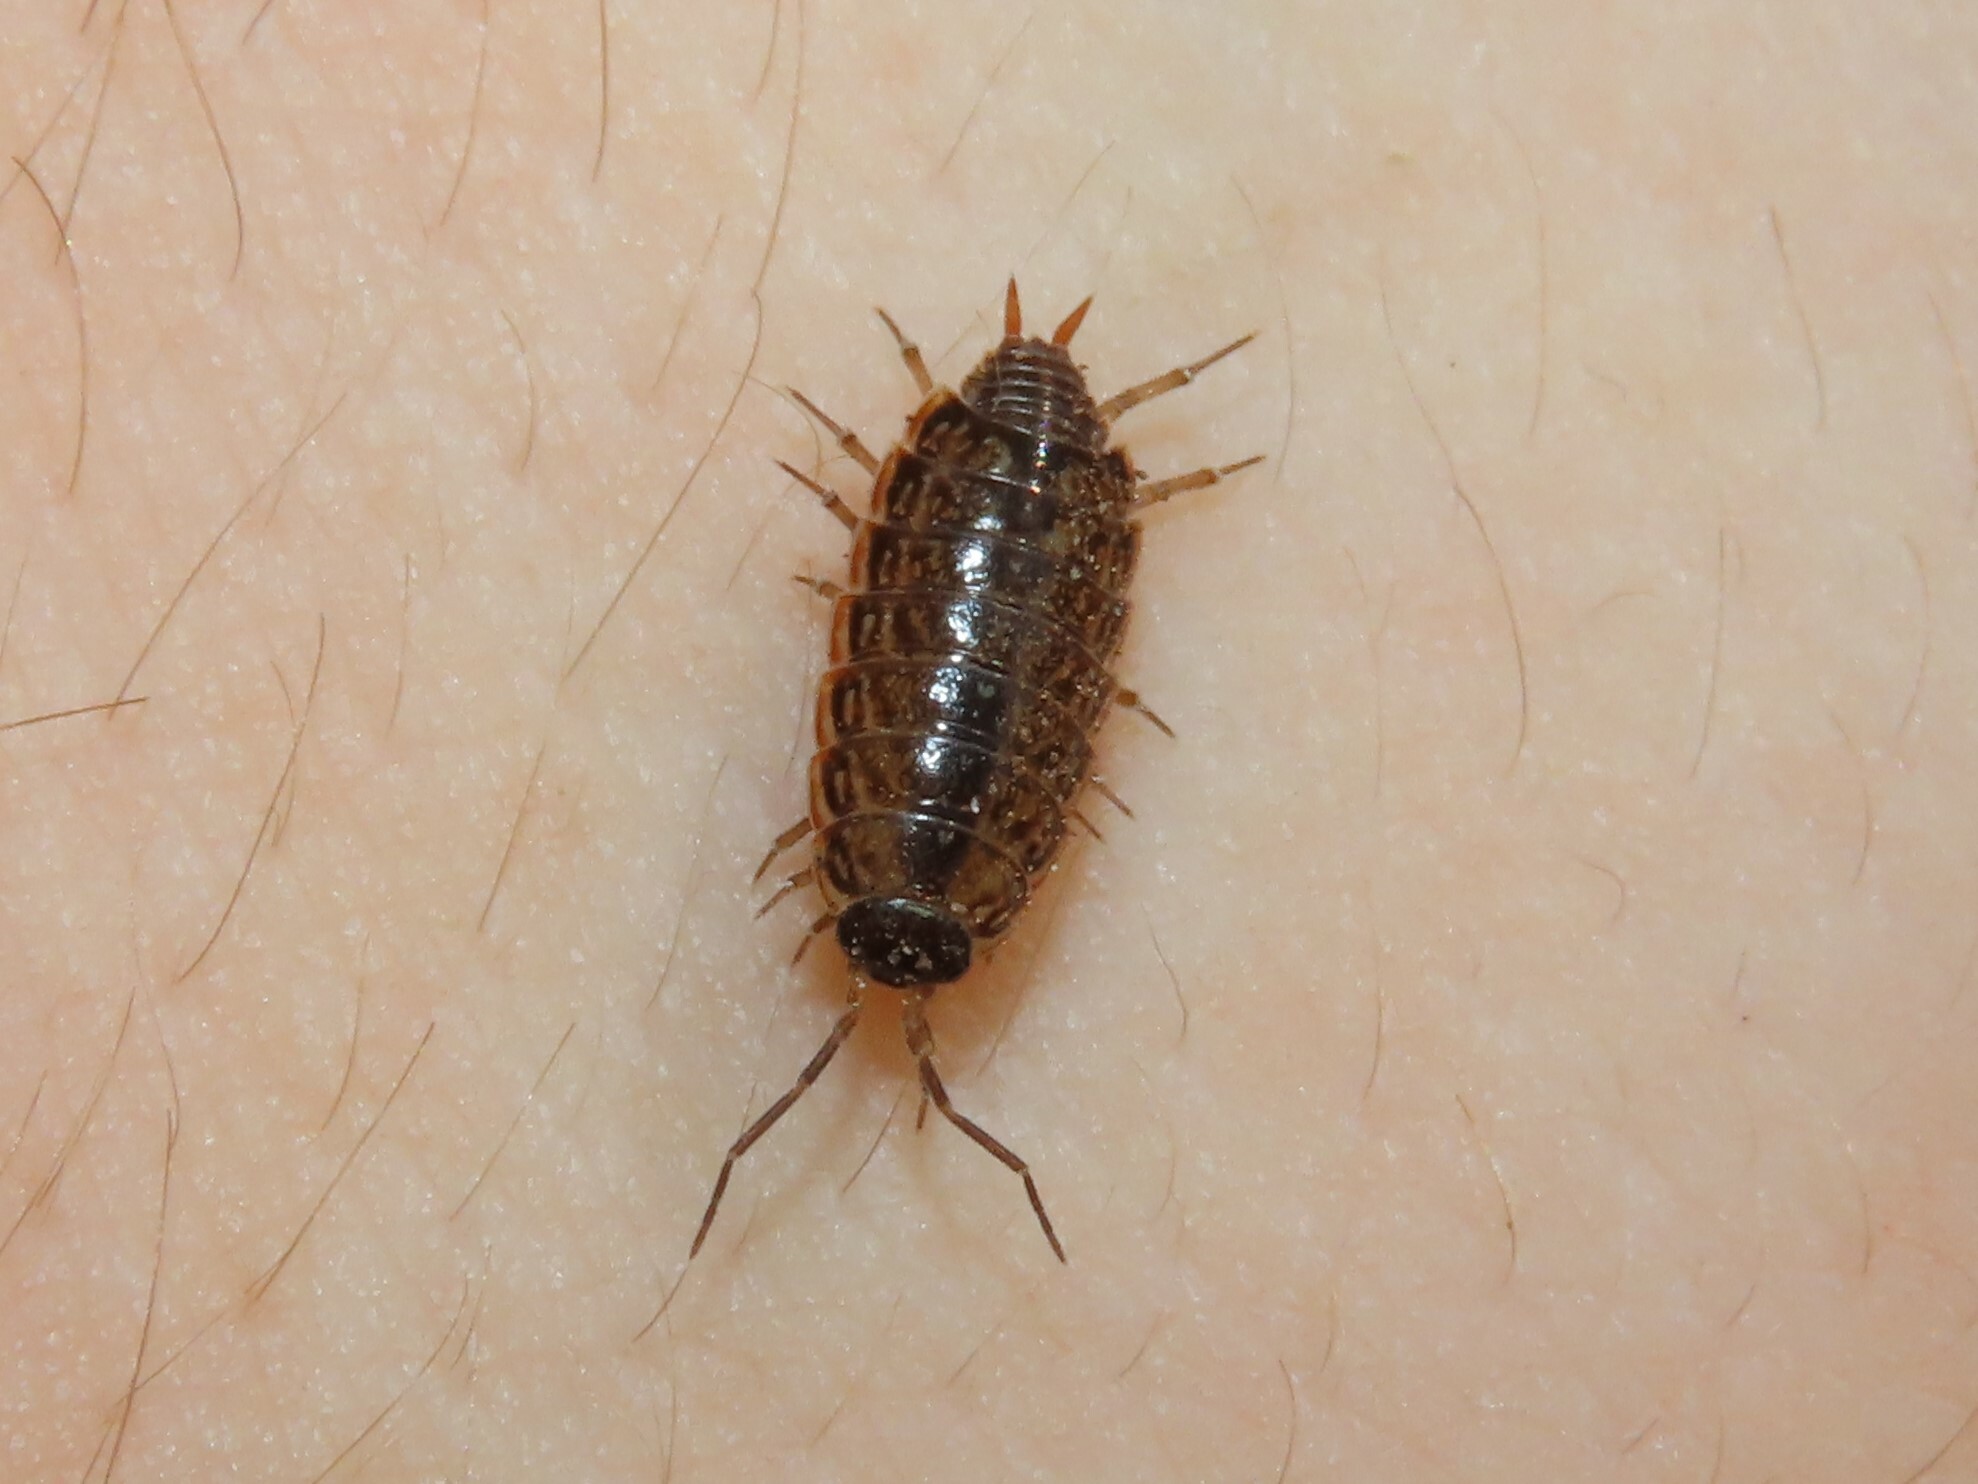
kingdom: Animalia
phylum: Arthropoda
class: Malacostraca
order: Isopoda
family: Philosciidae
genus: Philoscia
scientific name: Philoscia muscorum
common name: Common striped woodlouse
